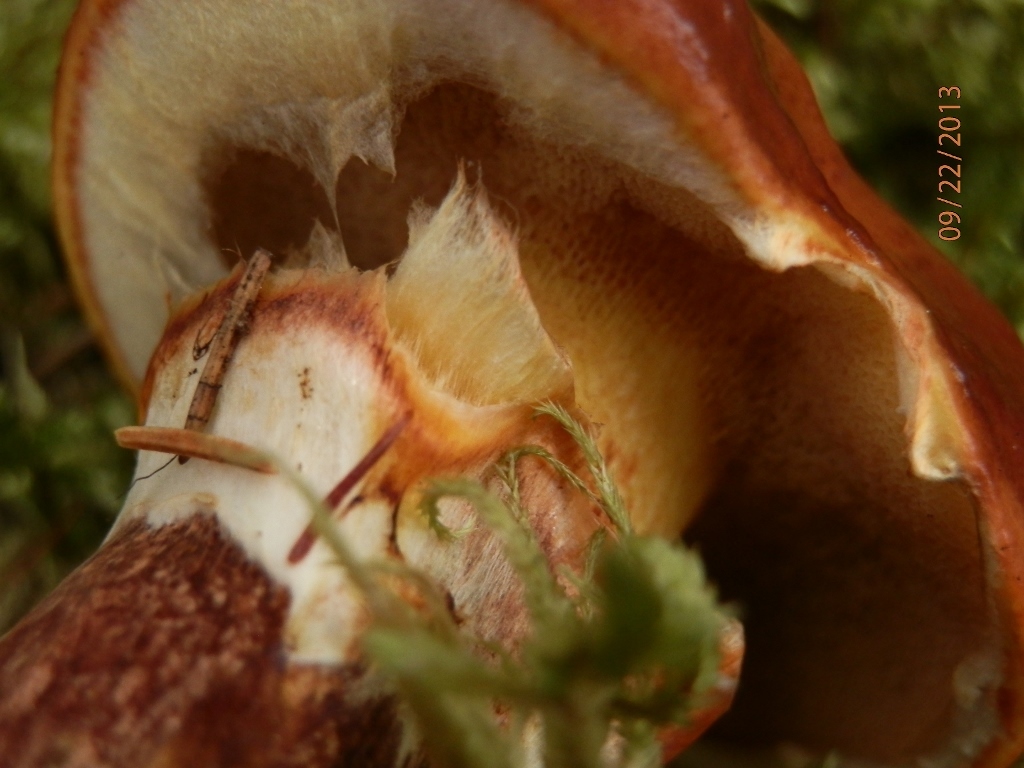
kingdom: Fungi
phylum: Basidiomycota
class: Agaricomycetes
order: Boletales
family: Suillaceae
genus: Suillus
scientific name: Suillus grevillei
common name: Larch bolete
